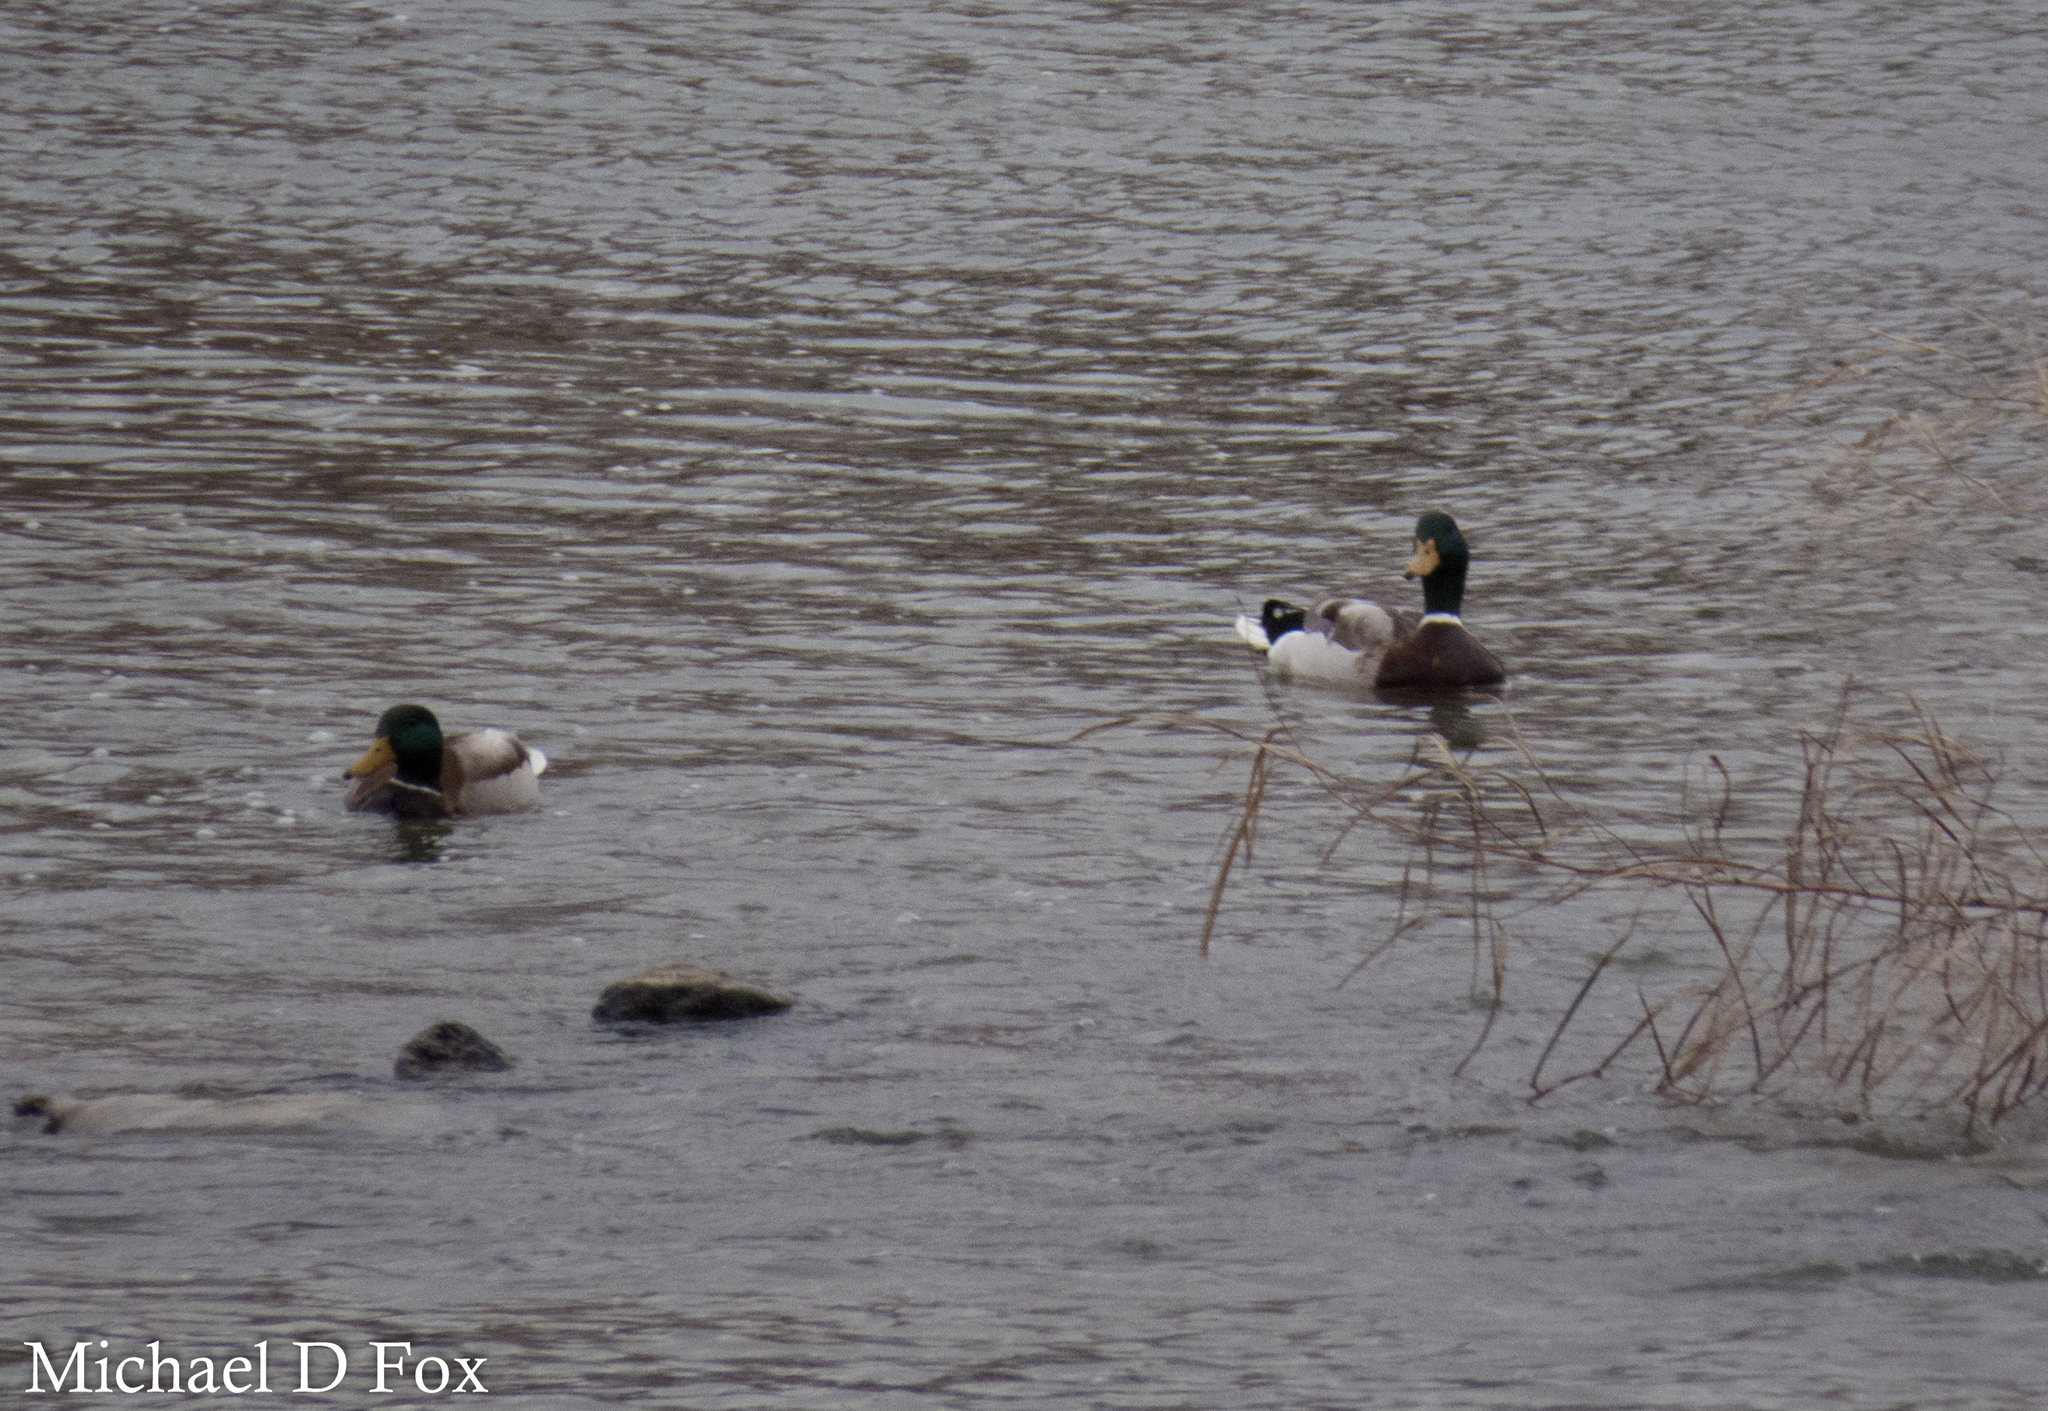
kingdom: Animalia
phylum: Chordata
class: Aves
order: Anseriformes
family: Anatidae
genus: Anas
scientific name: Anas platyrhynchos
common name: Mallard
